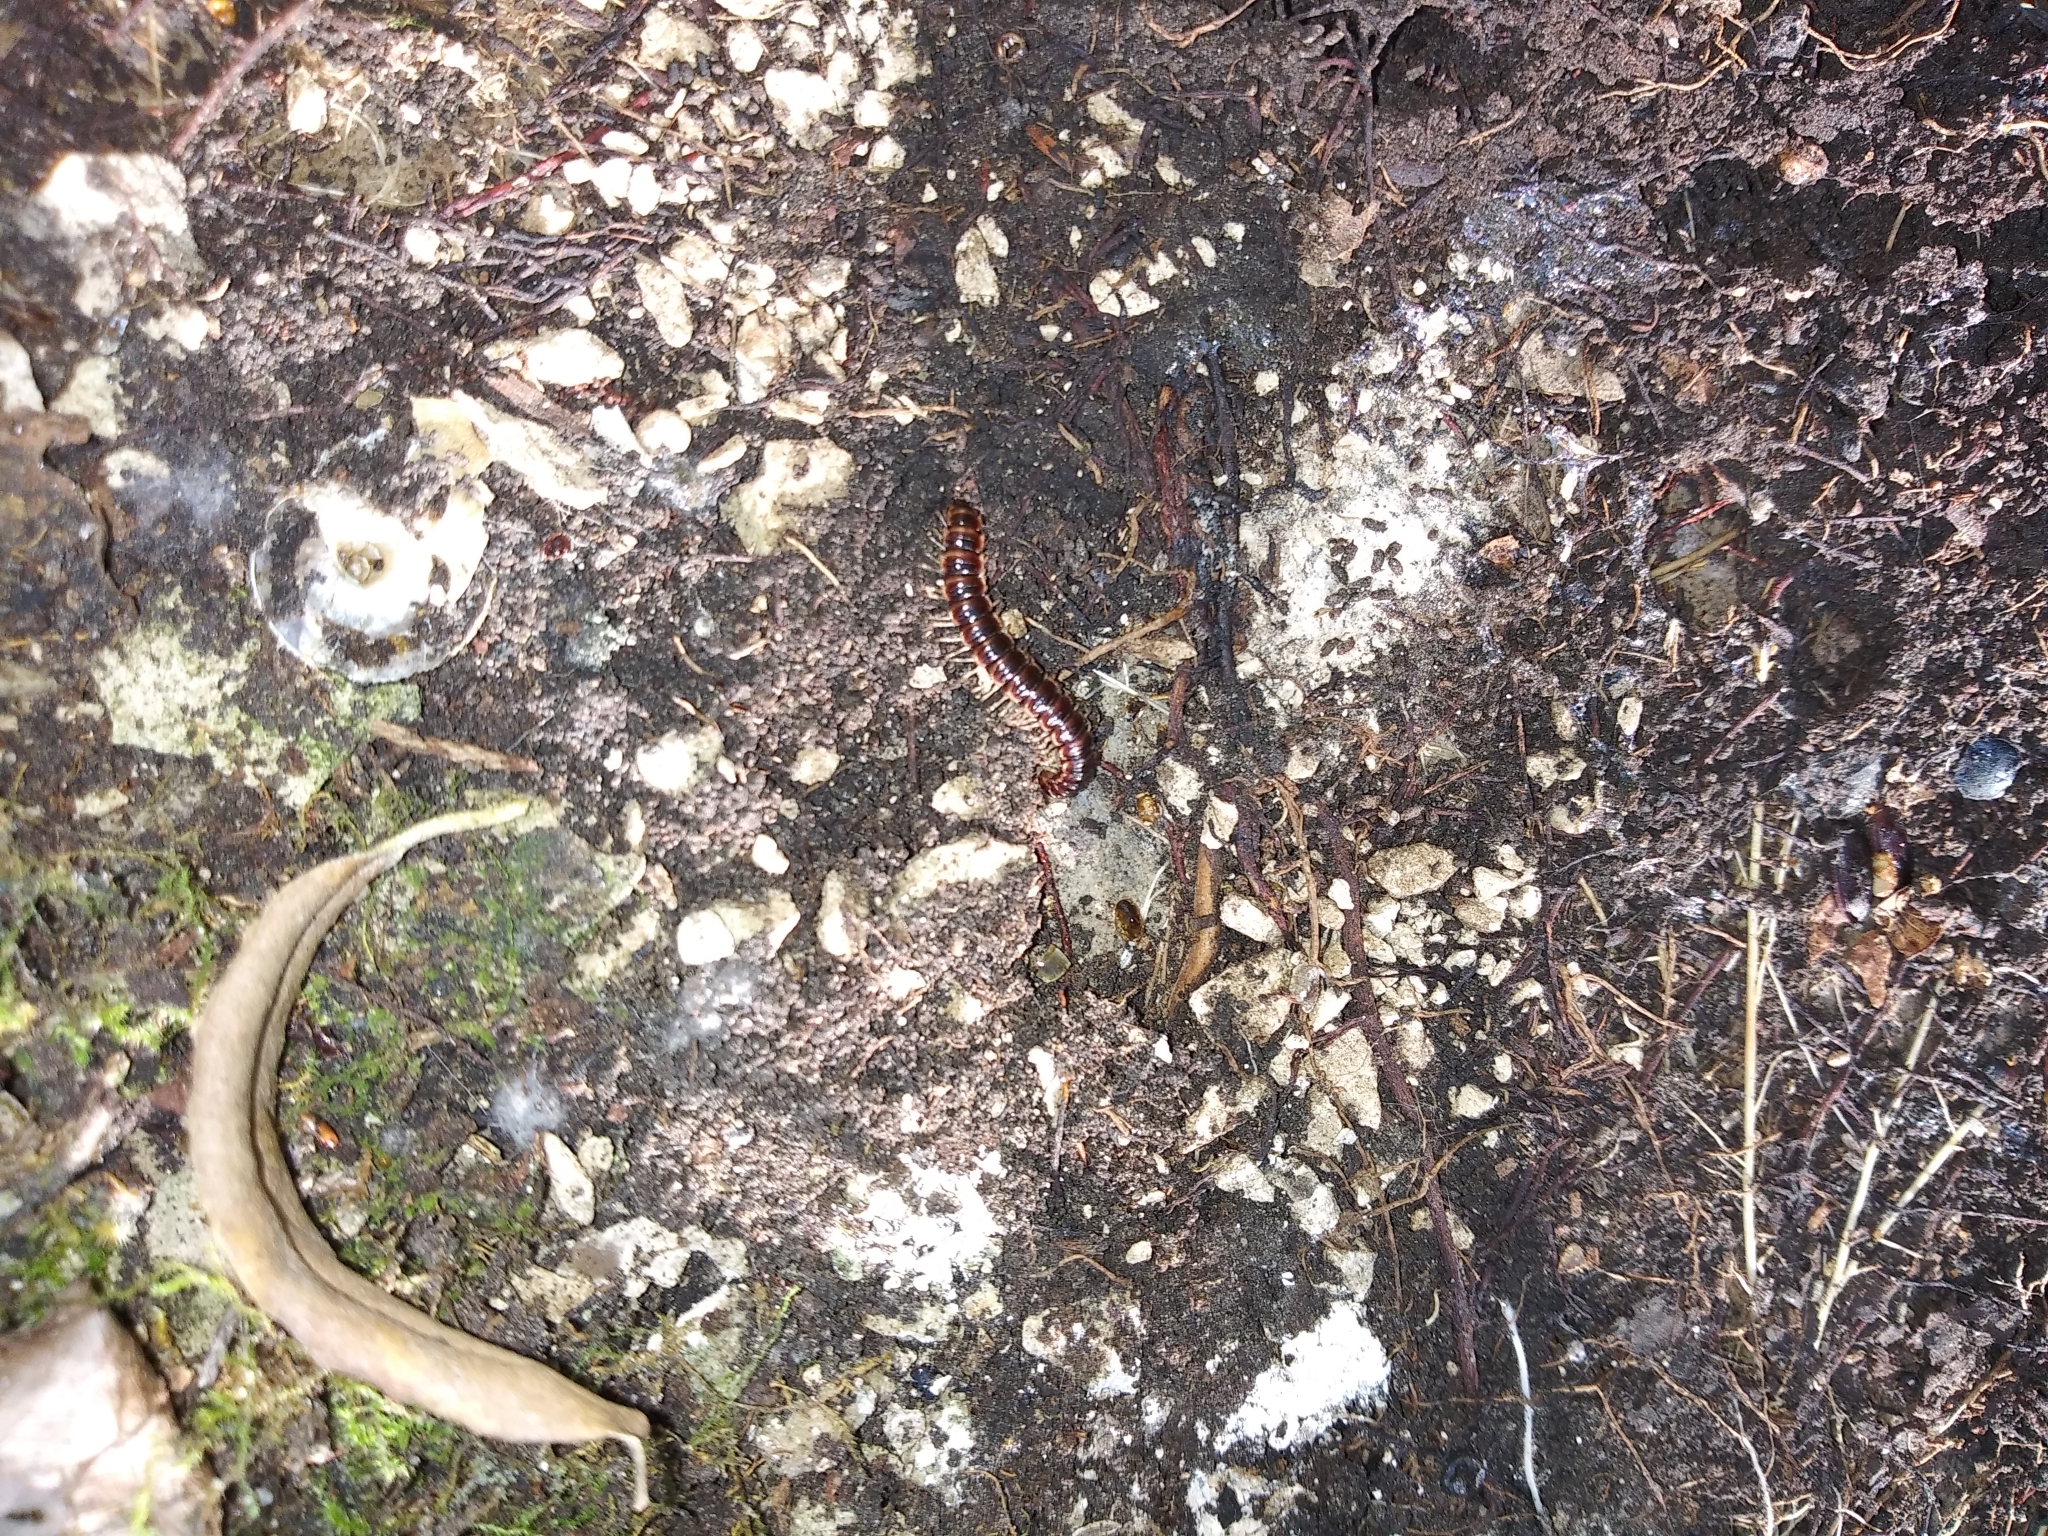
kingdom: Animalia
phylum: Arthropoda
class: Diplopoda
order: Polydesmida
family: Paradoxosomatidae
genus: Oxidus
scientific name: Oxidus gracilis
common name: Greenhouse millipede
